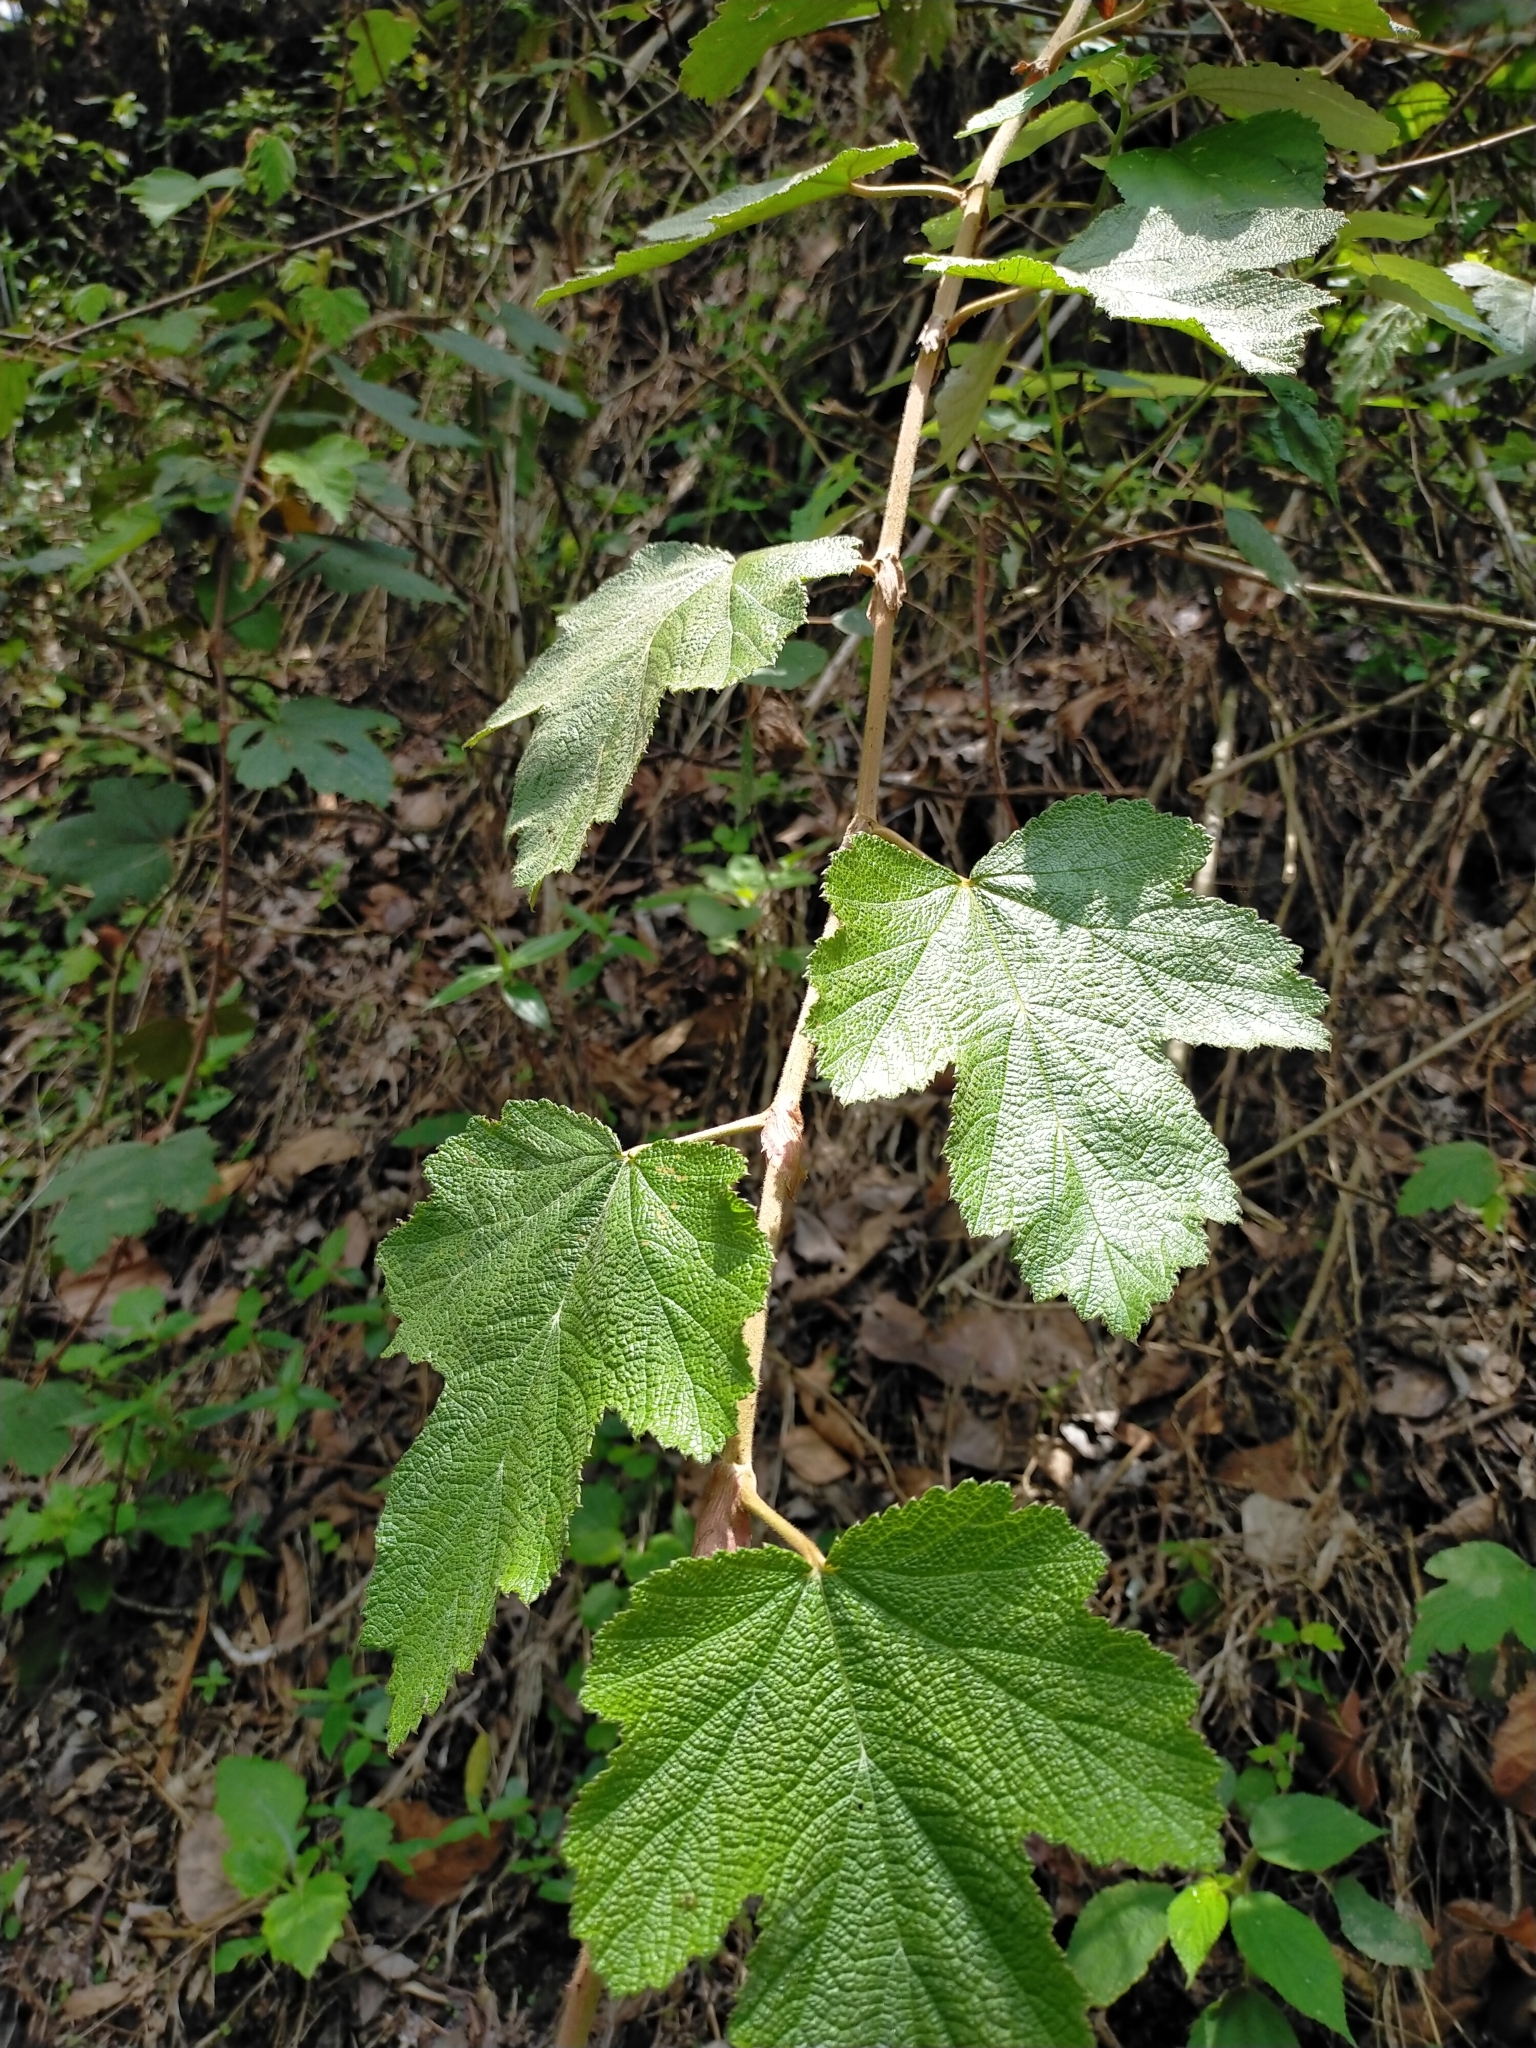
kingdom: Plantae
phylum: Tracheophyta
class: Magnoliopsida
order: Rosales
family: Rosaceae
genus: Rubus
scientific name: Rubus formosensis
